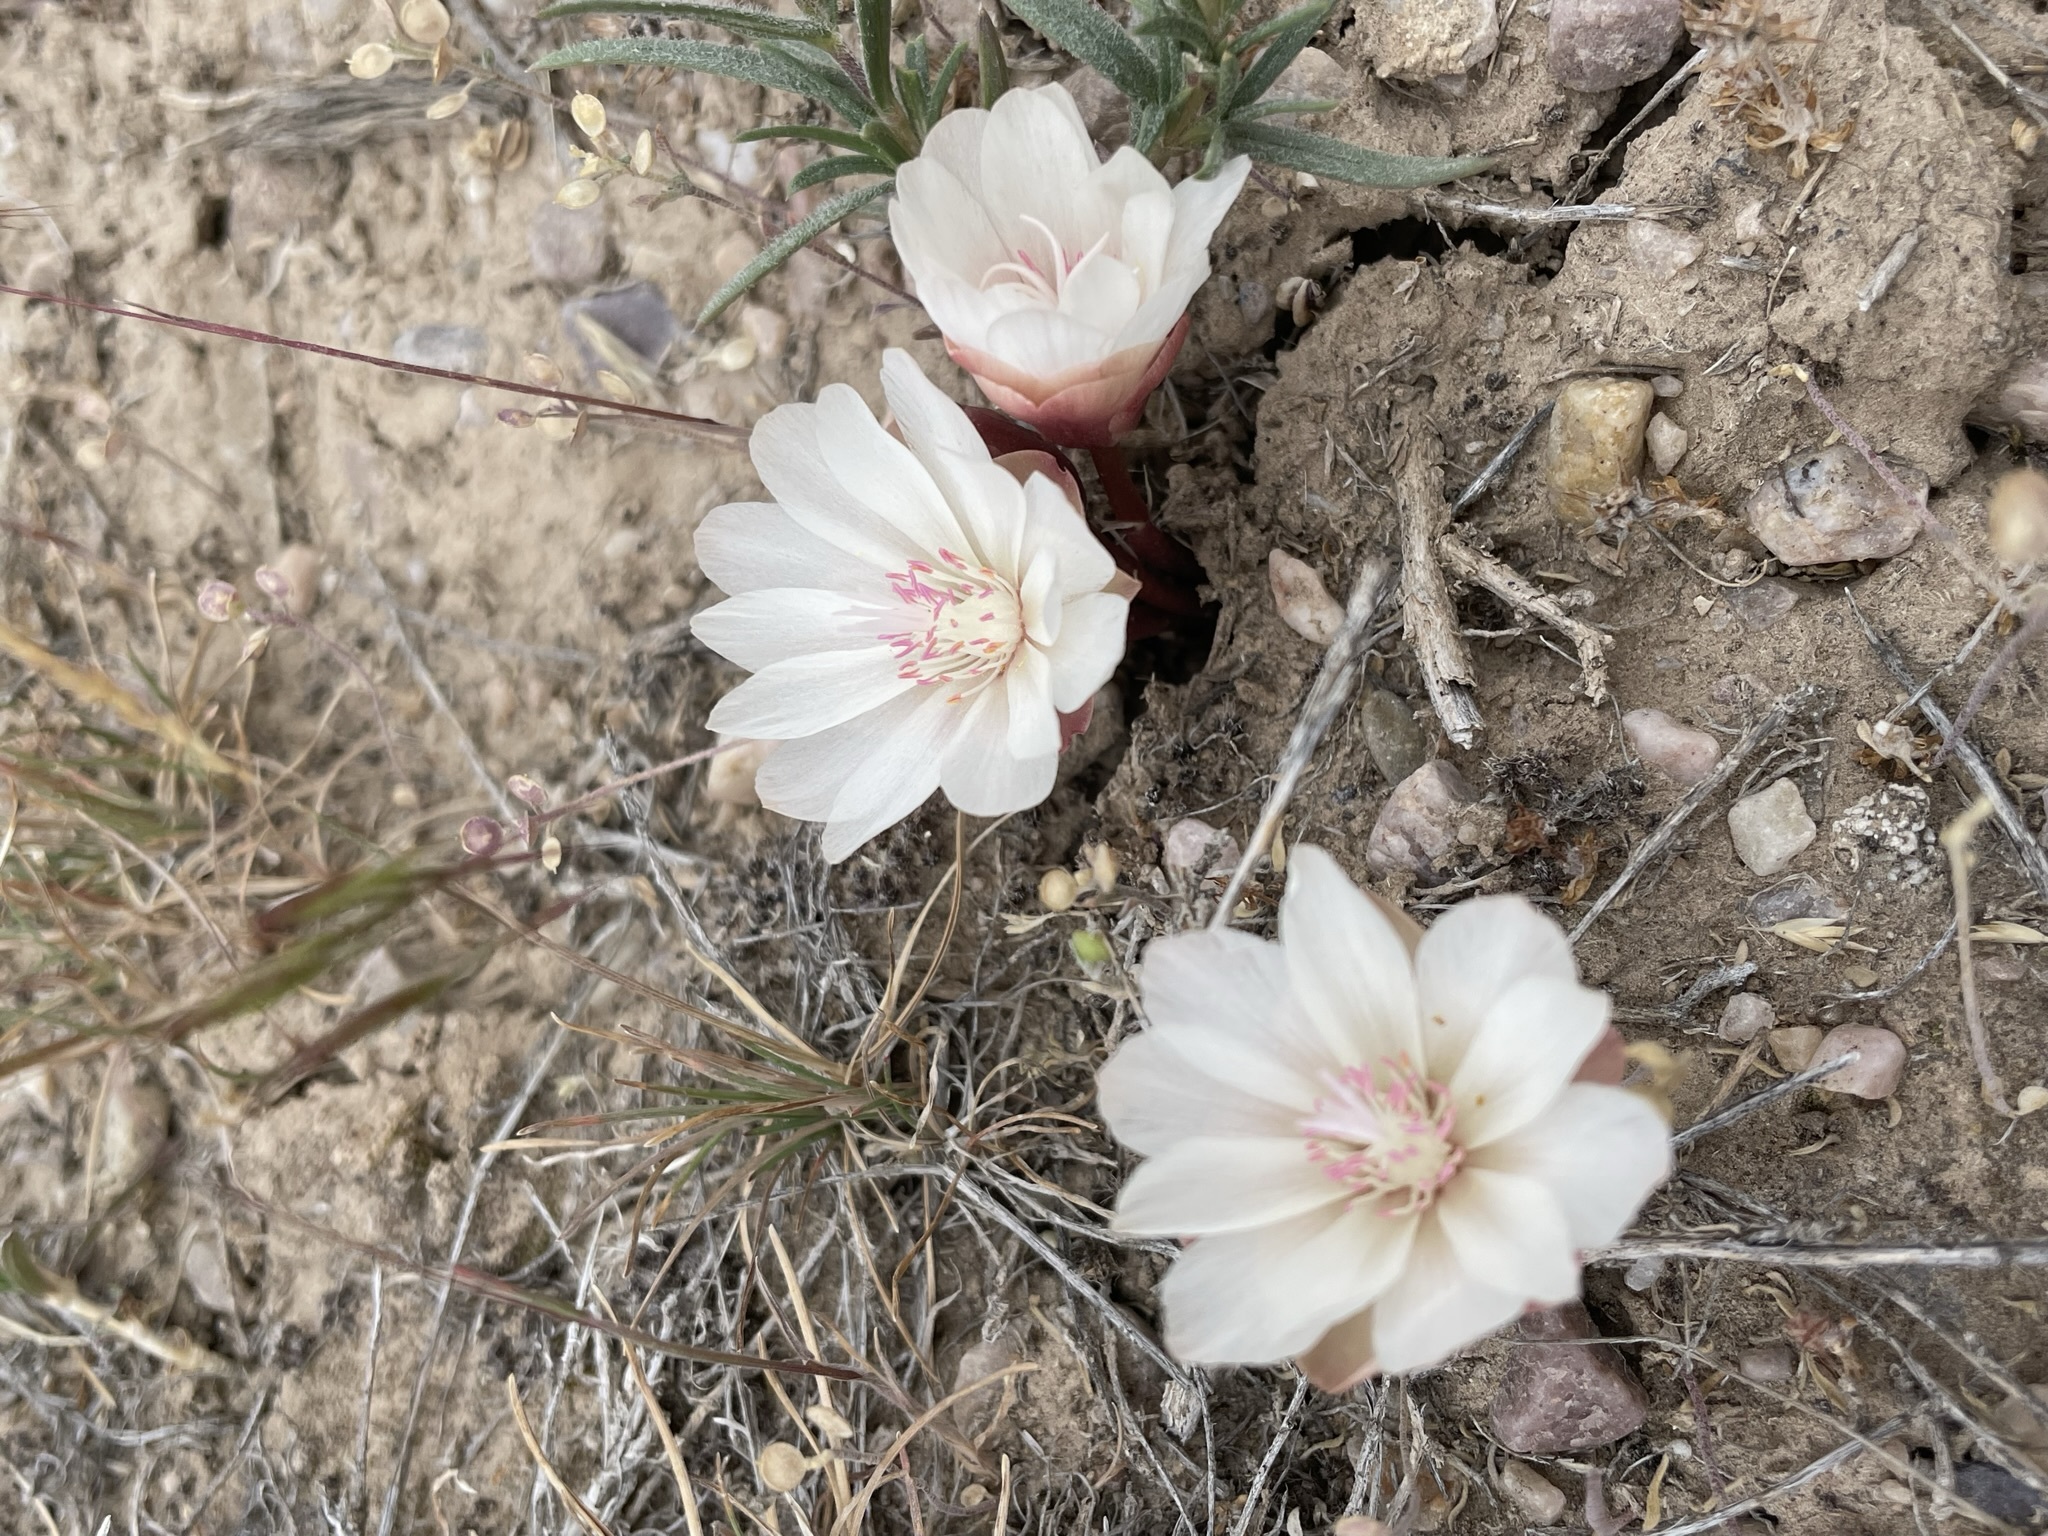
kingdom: Plantae
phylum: Tracheophyta
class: Magnoliopsida
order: Caryophyllales
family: Montiaceae
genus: Lewisia
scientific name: Lewisia rediviva
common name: Bitter-root
